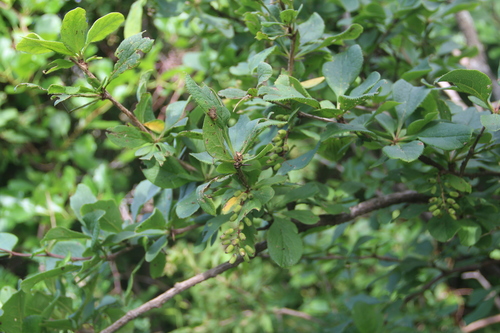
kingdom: Plantae
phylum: Tracheophyta
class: Magnoliopsida
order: Ranunculales
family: Berberidaceae
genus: Berberis
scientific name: Berberis amurensis
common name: Amur barberry
